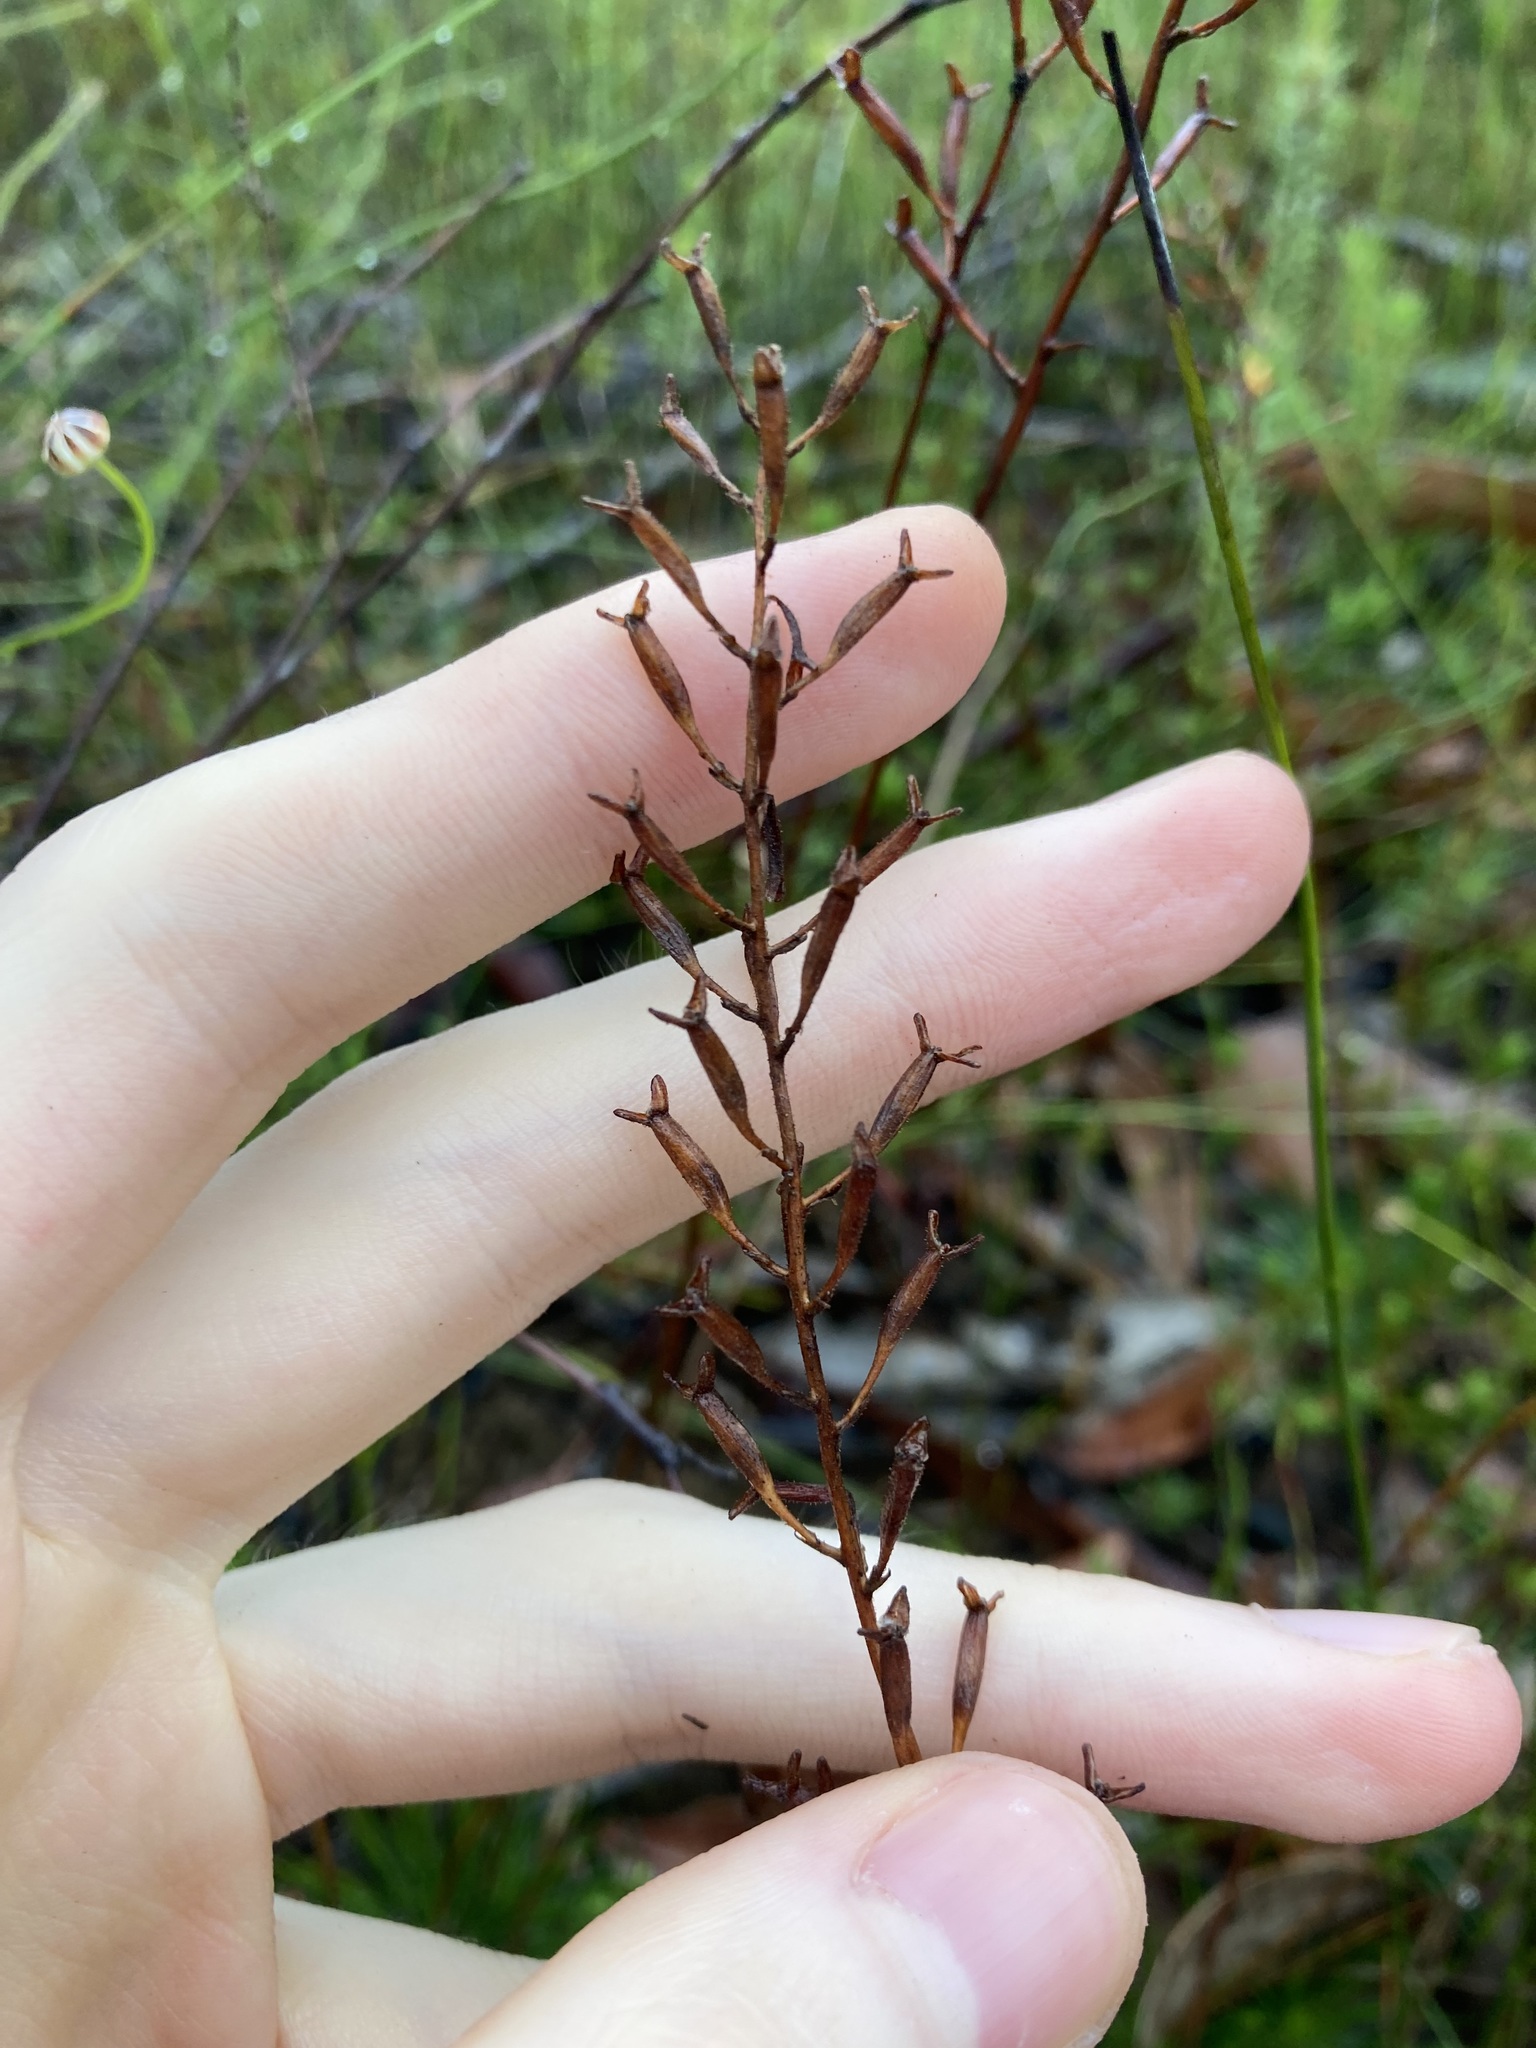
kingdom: Plantae
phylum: Tracheophyta
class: Magnoliopsida
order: Asterales
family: Stylidiaceae
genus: Stylidium
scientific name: Stylidium lineare
